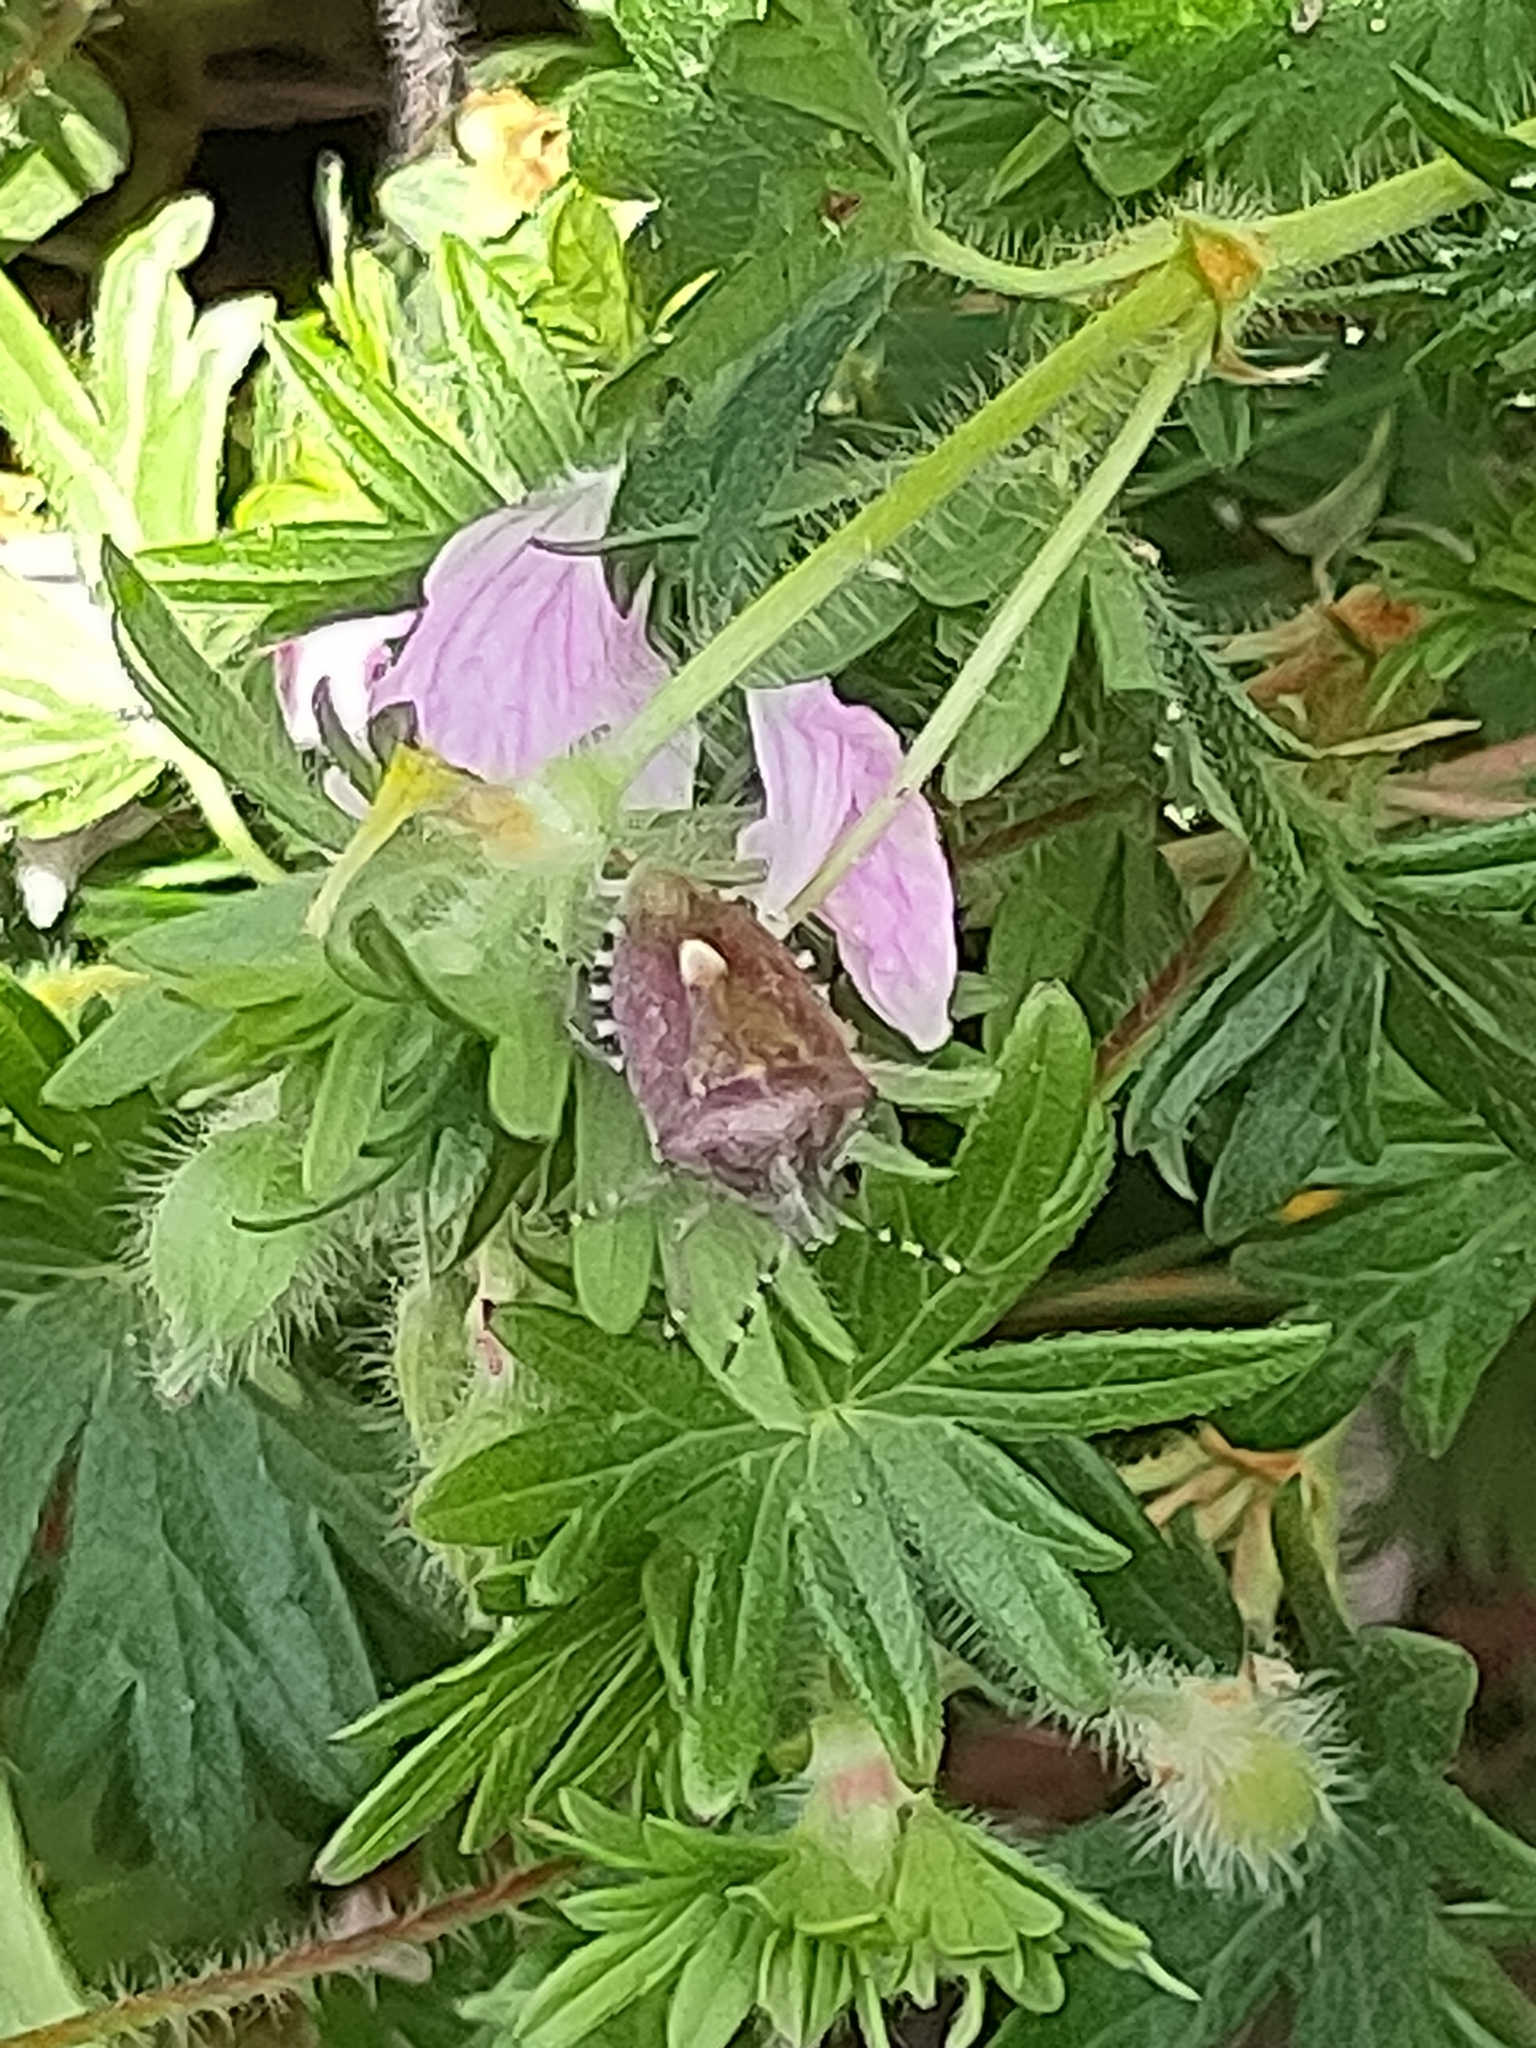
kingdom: Animalia
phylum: Arthropoda
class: Insecta
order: Hemiptera
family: Pentatomidae
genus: Dolycoris
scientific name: Dolycoris baccarum
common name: Sloe bug
